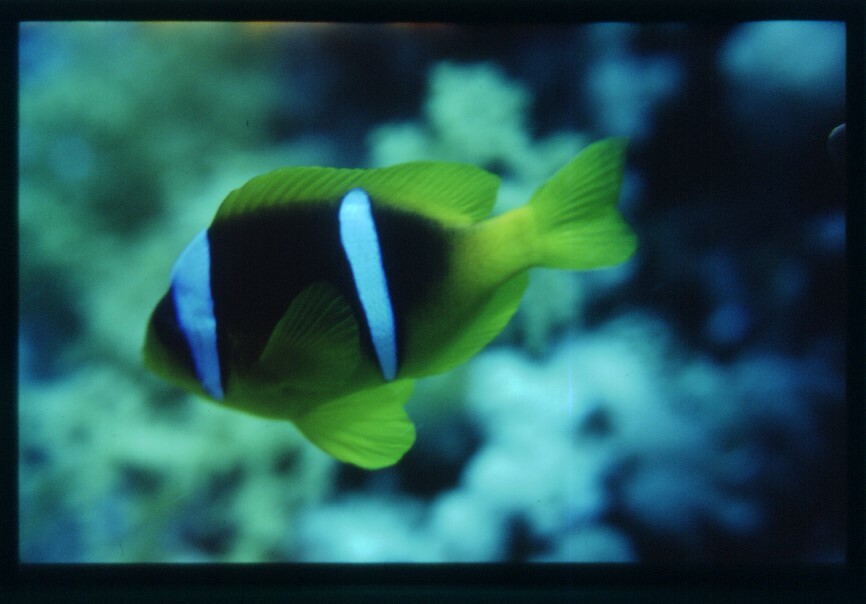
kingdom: Animalia
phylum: Chordata
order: Perciformes
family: Pomacentridae
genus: Amphiprion
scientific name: Amphiprion bicinctus
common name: Two-banded anemonefish
